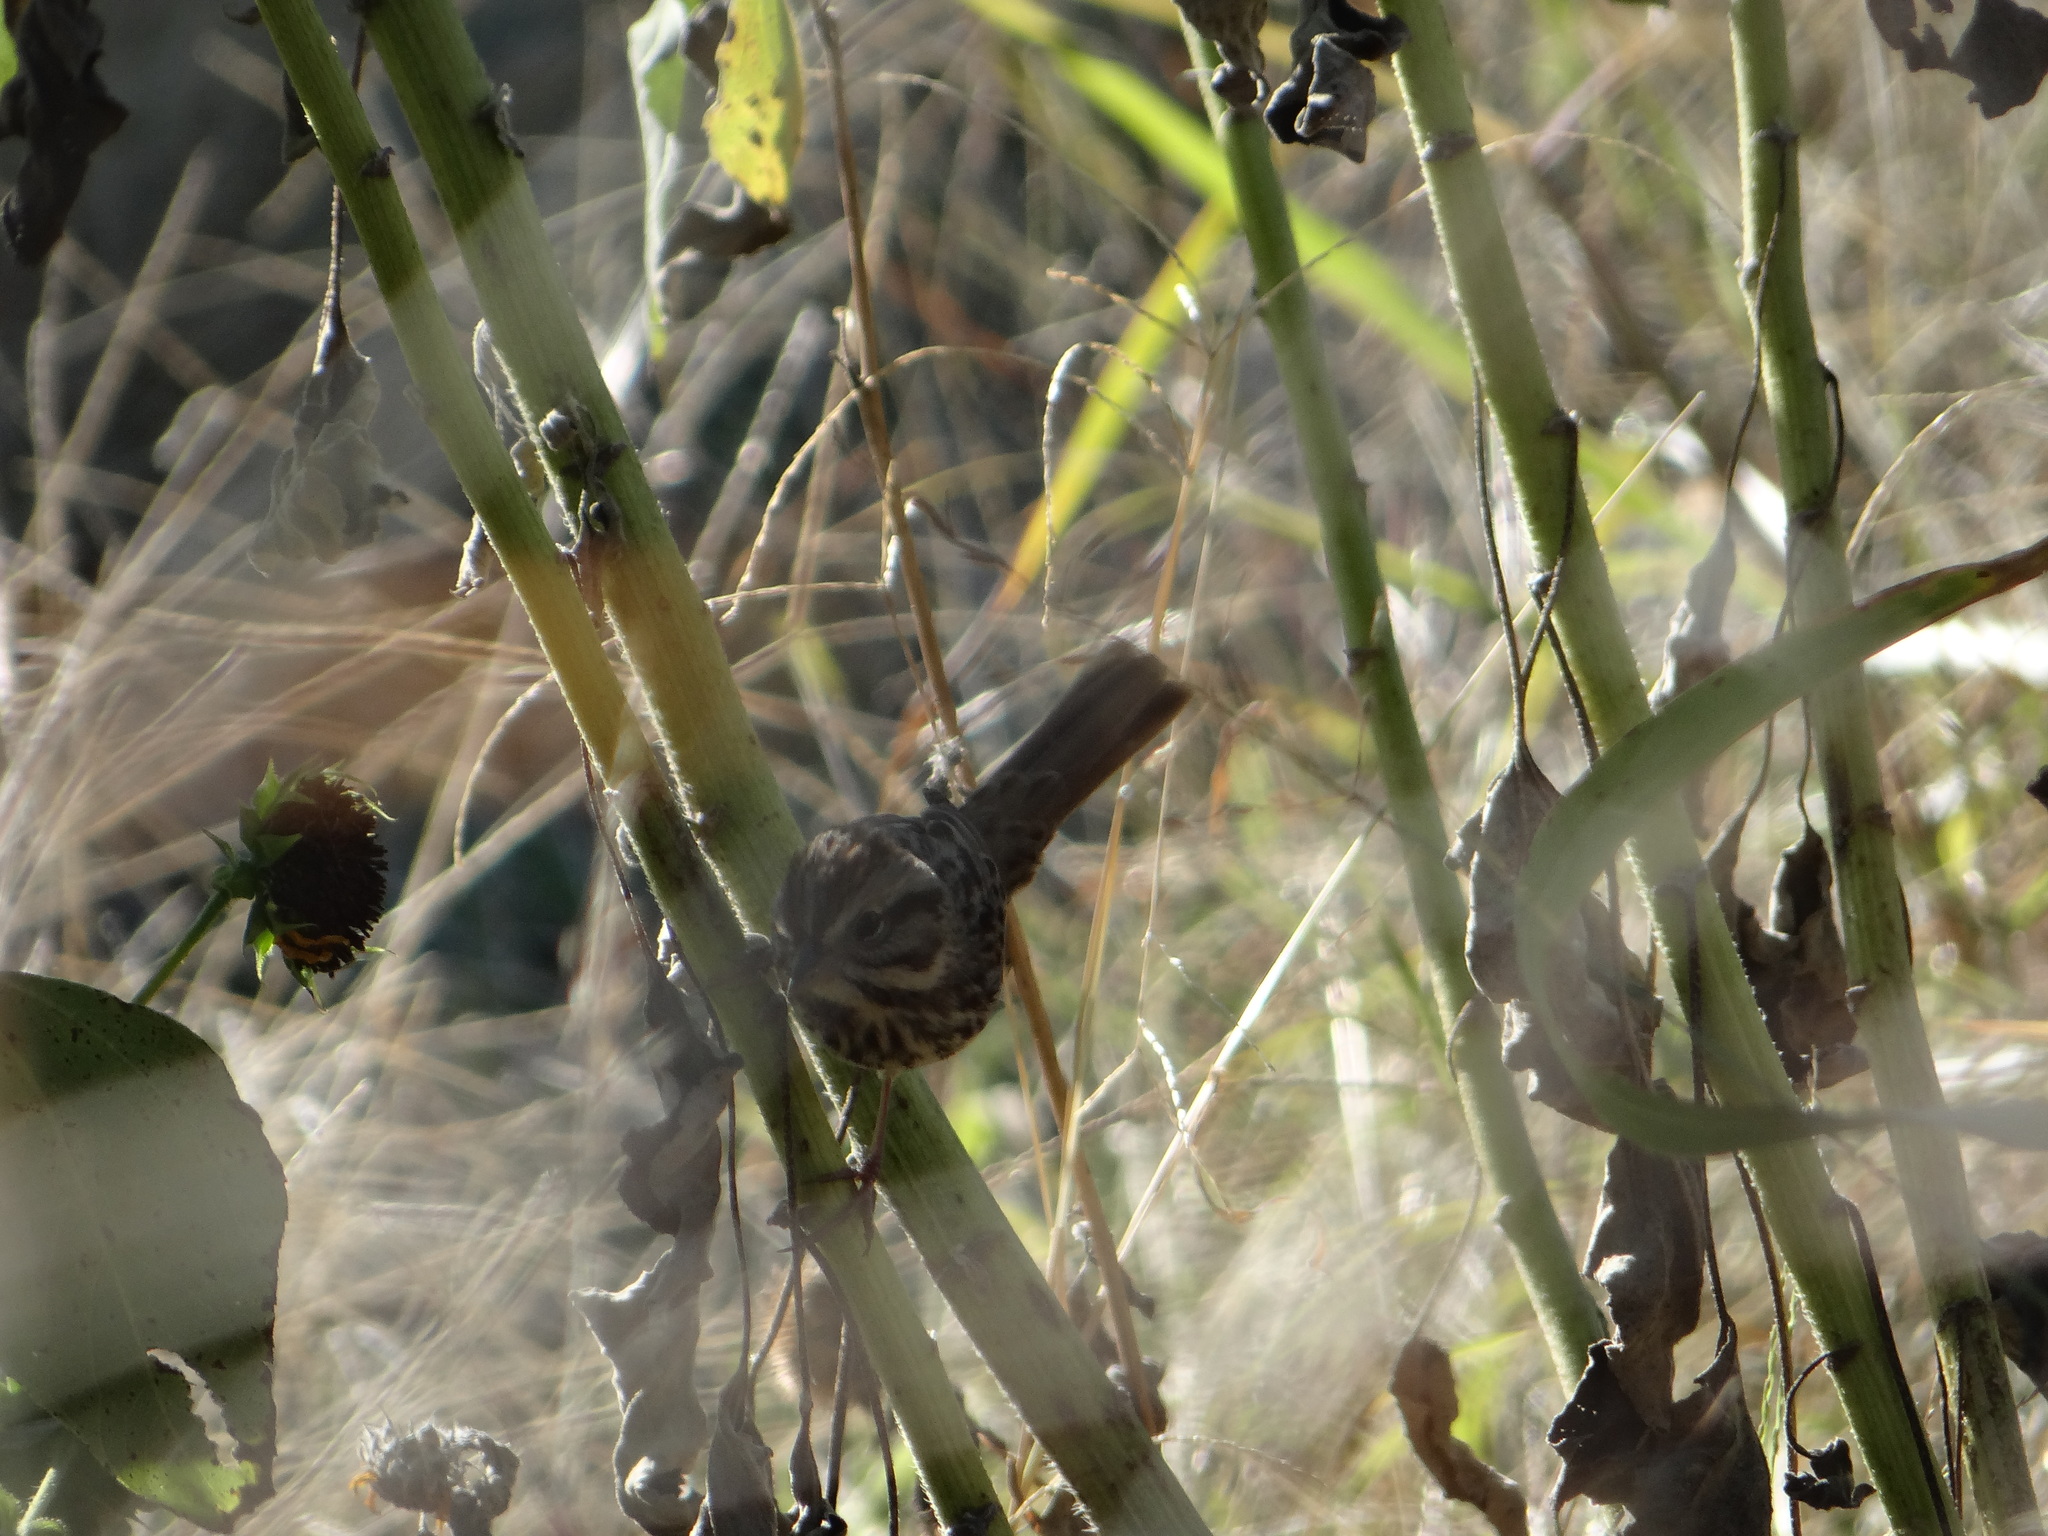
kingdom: Animalia
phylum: Chordata
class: Aves
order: Passeriformes
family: Passerellidae
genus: Melospiza
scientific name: Melospiza melodia
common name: Song sparrow
